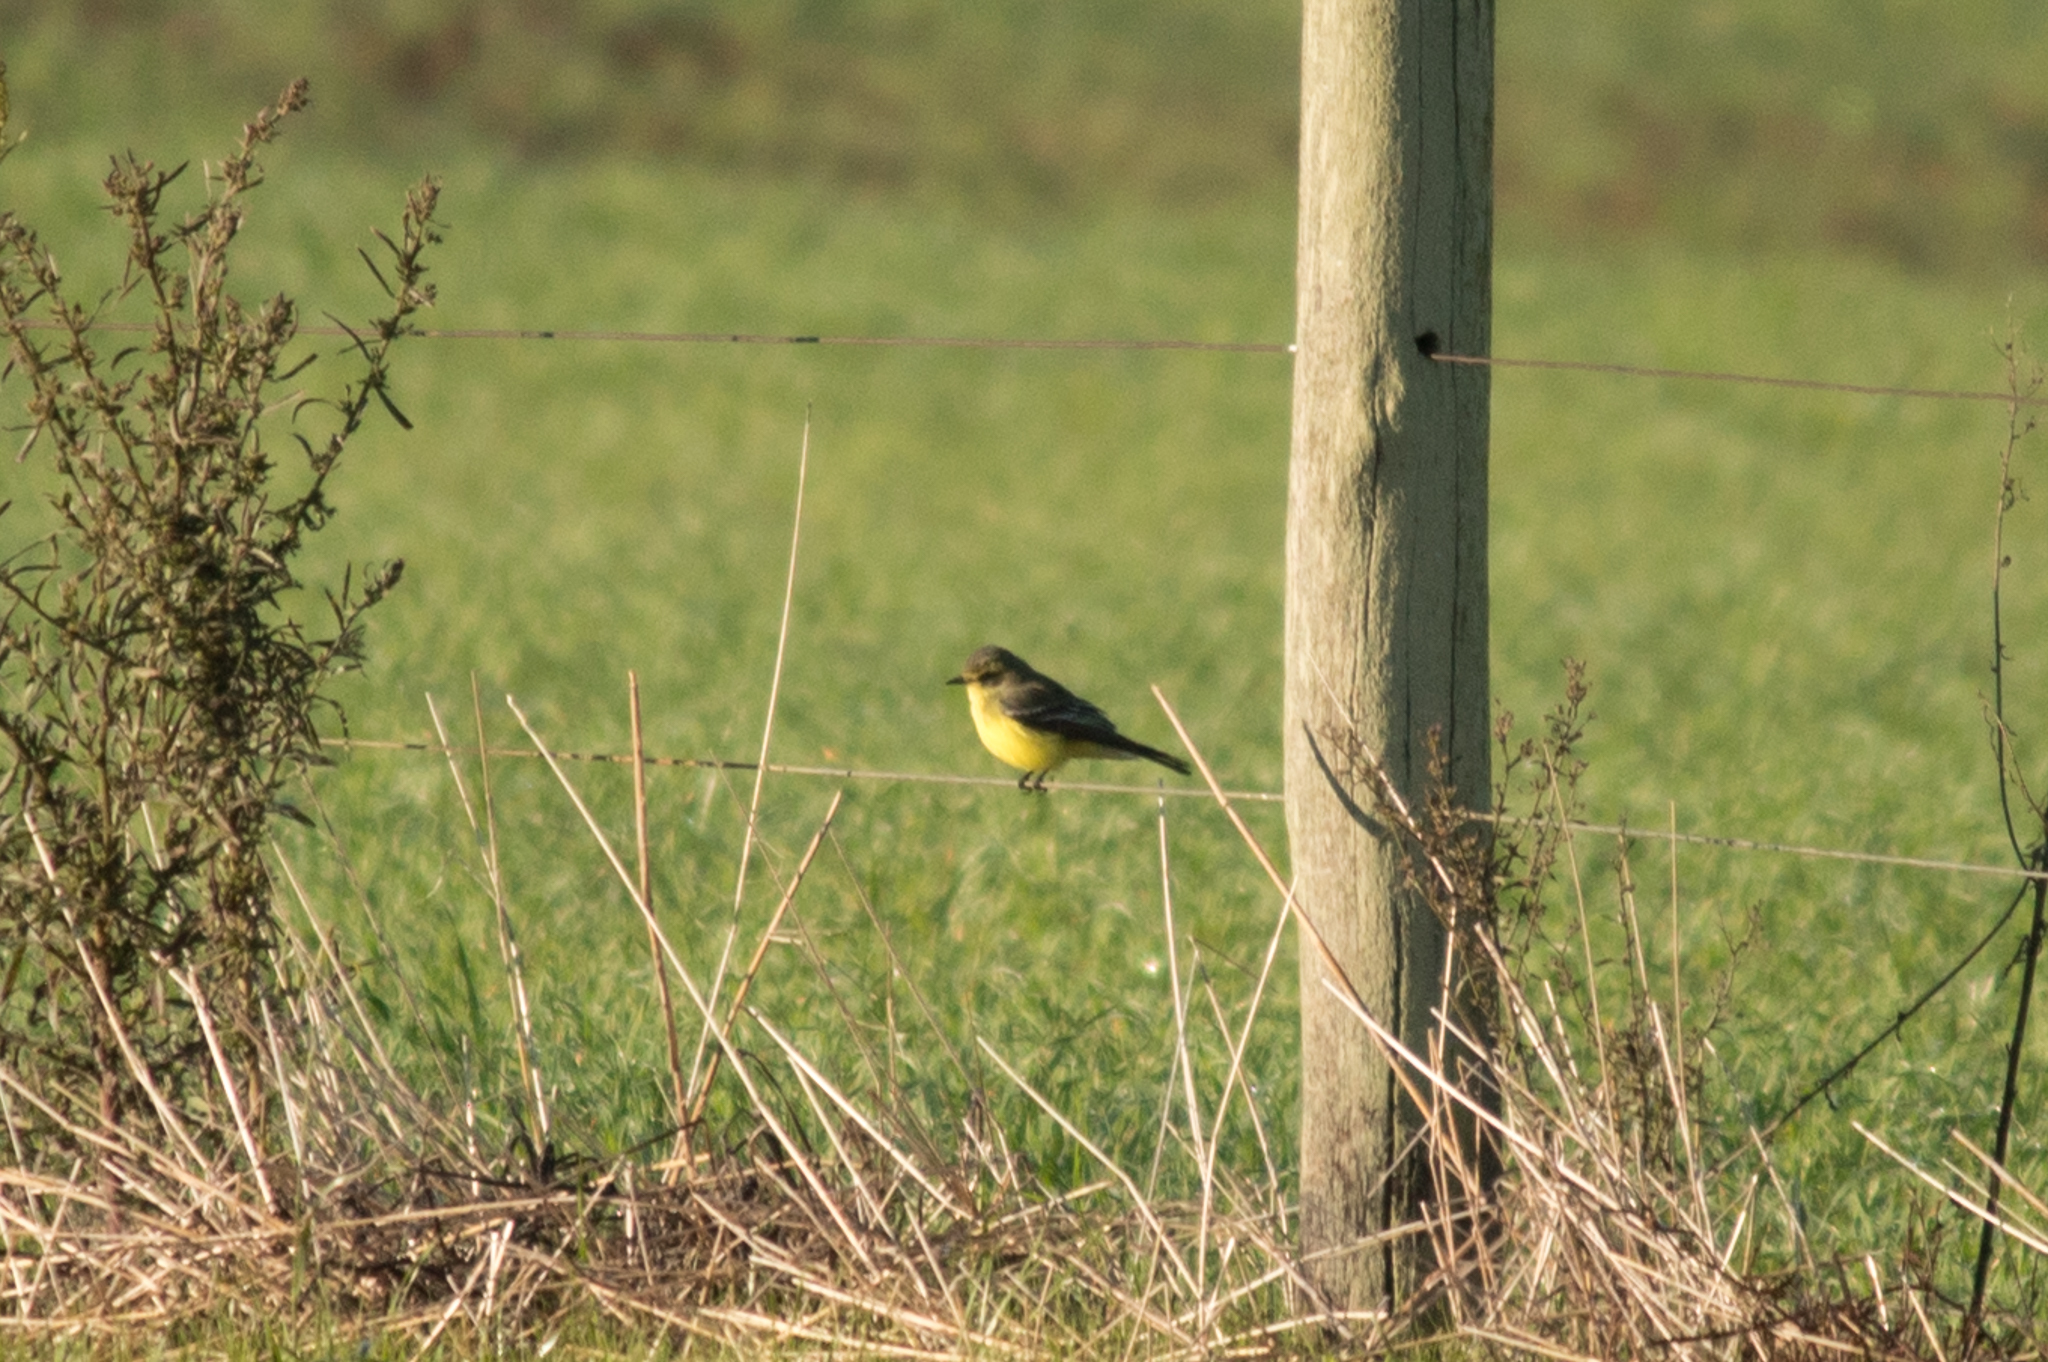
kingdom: Animalia
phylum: Chordata
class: Aves
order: Passeriformes
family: Tyrannidae
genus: Satrapa
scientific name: Satrapa icterophrys
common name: Yellow-browed tyrant
